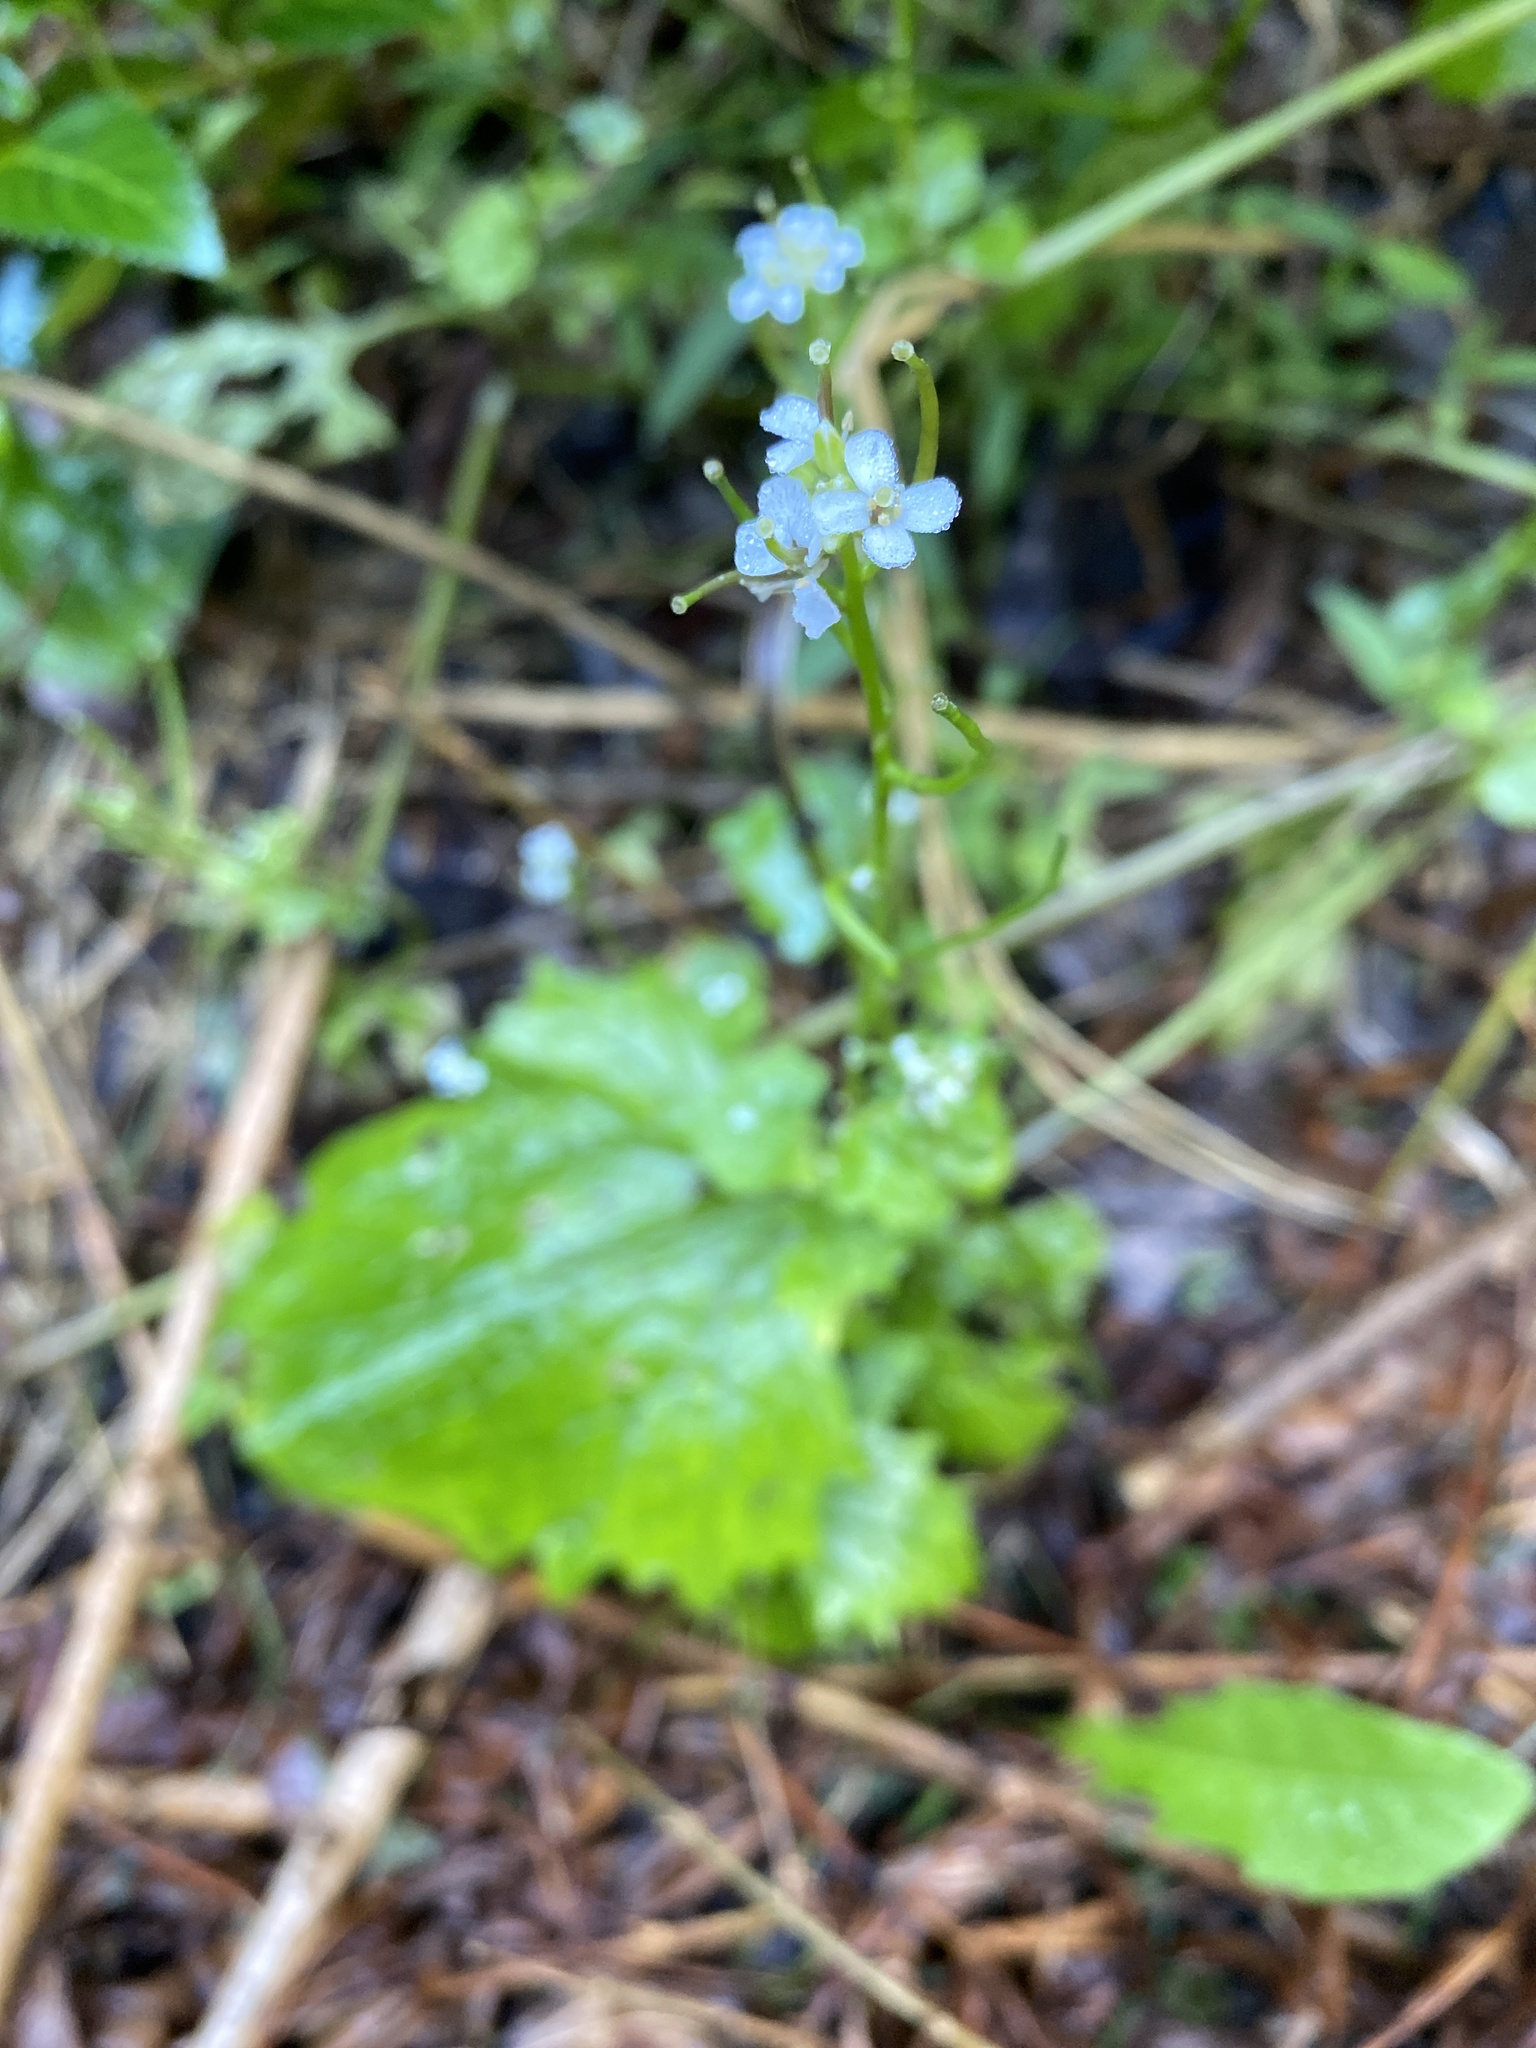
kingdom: Plantae
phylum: Tracheophyta
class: Magnoliopsida
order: Brassicales
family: Brassicaceae
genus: Alliaria
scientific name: Alliaria petiolata
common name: Garlic mustard
